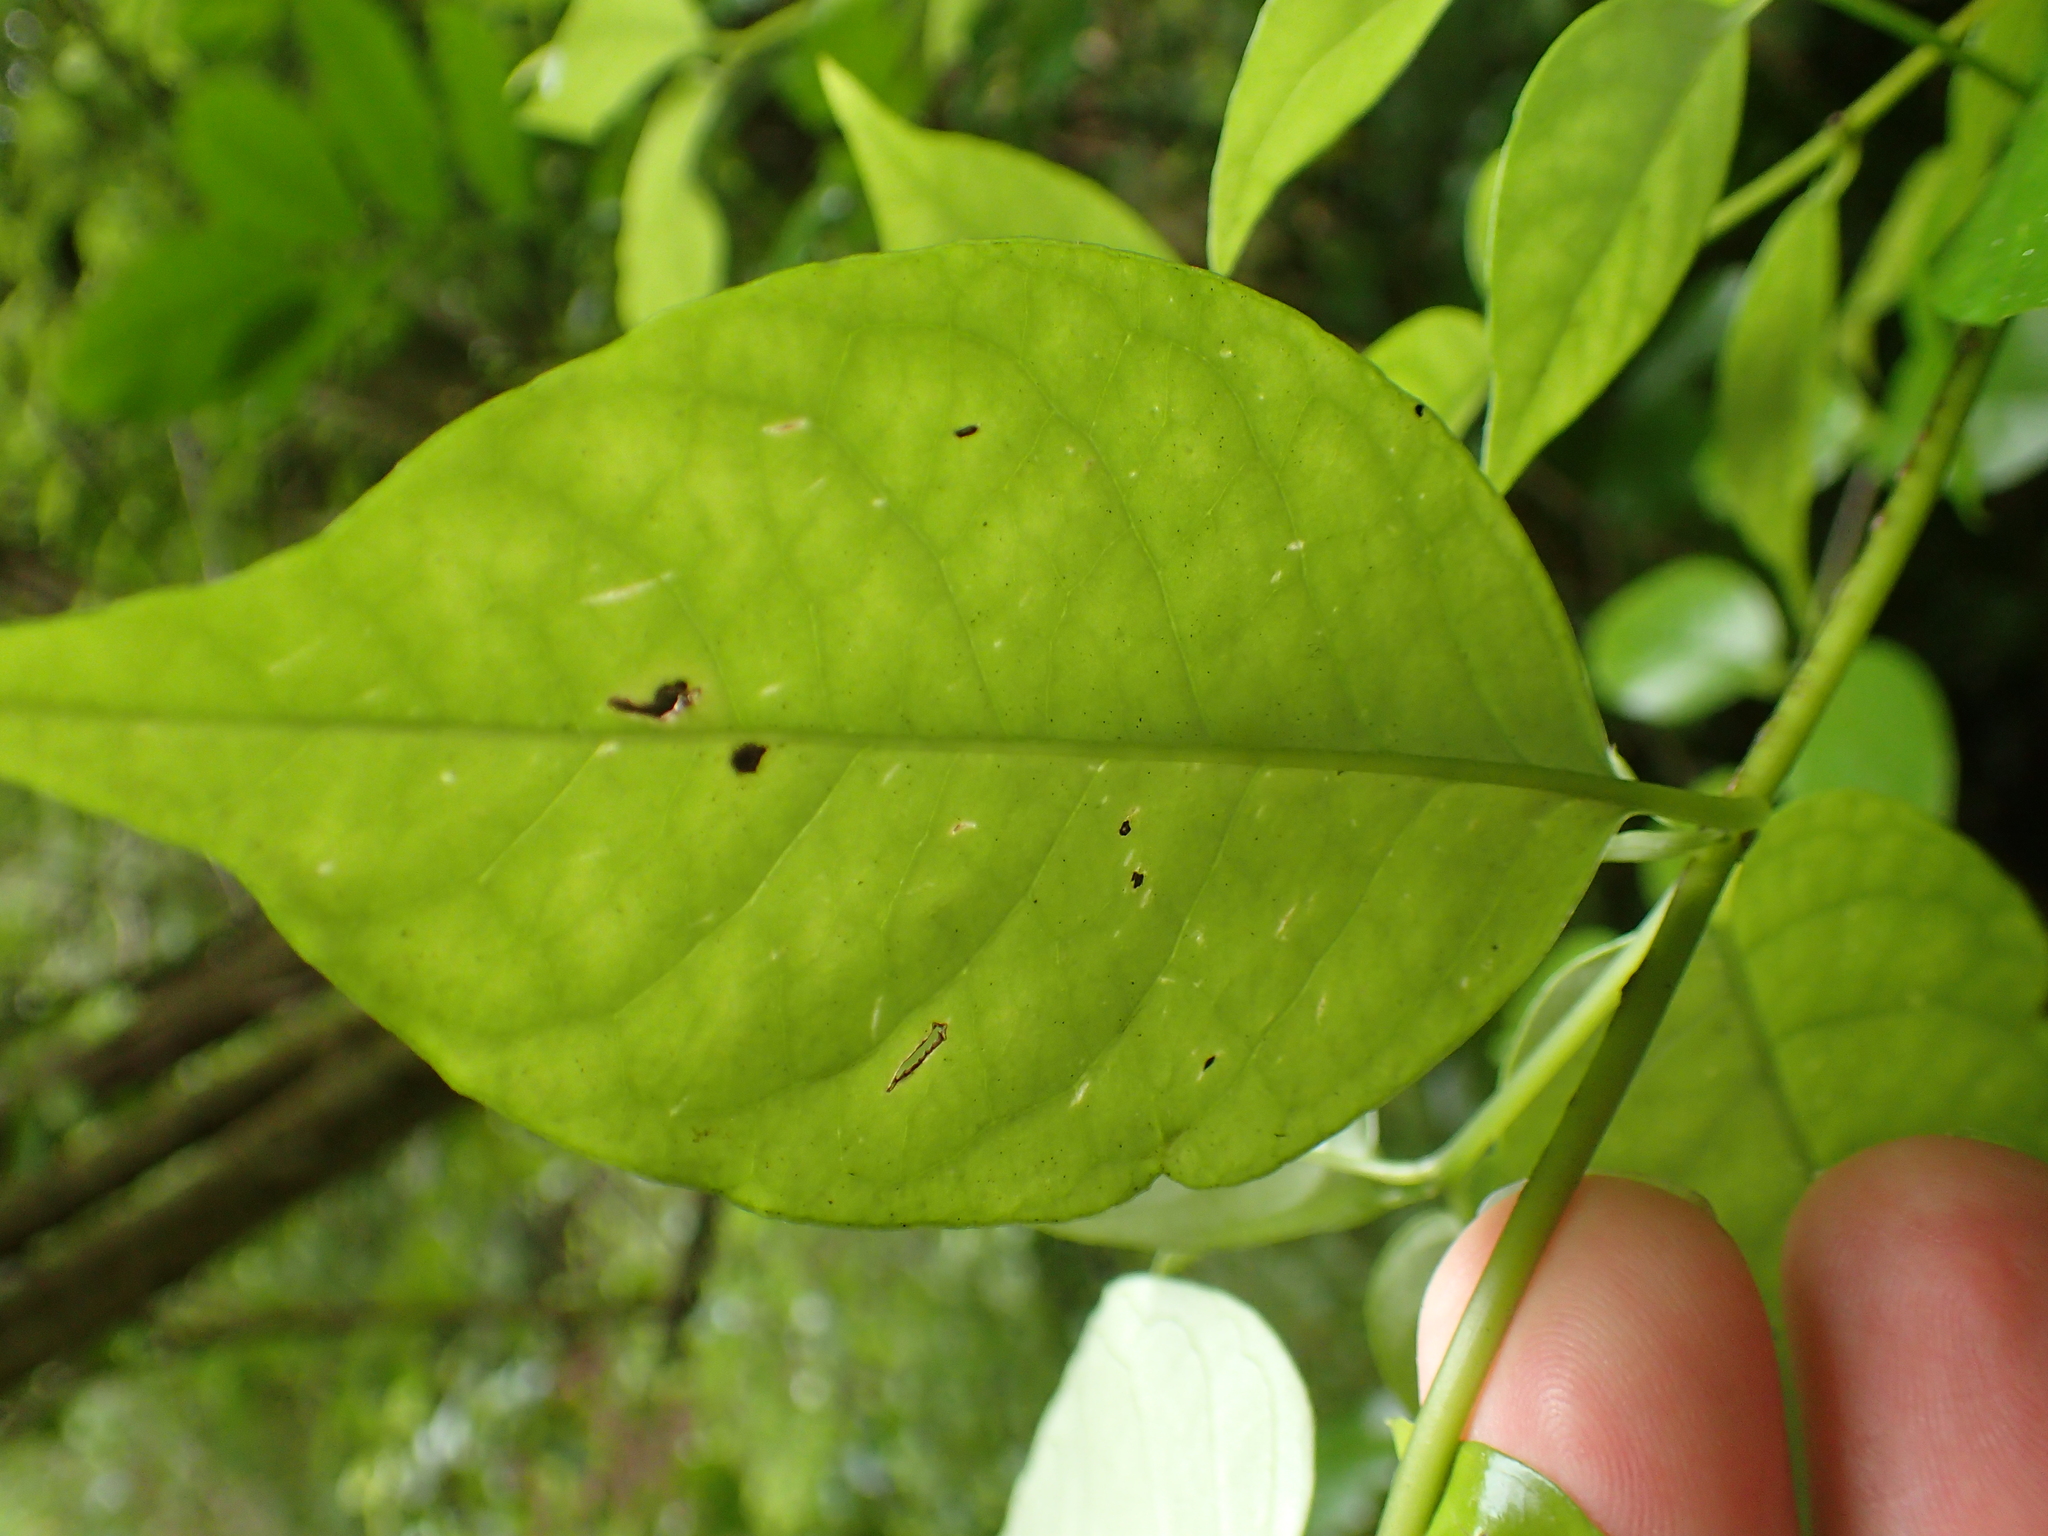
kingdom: Plantae
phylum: Tracheophyta
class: Magnoliopsida
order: Gentianales
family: Loganiaceae
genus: Geniostoma
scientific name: Geniostoma ligustrifolium
